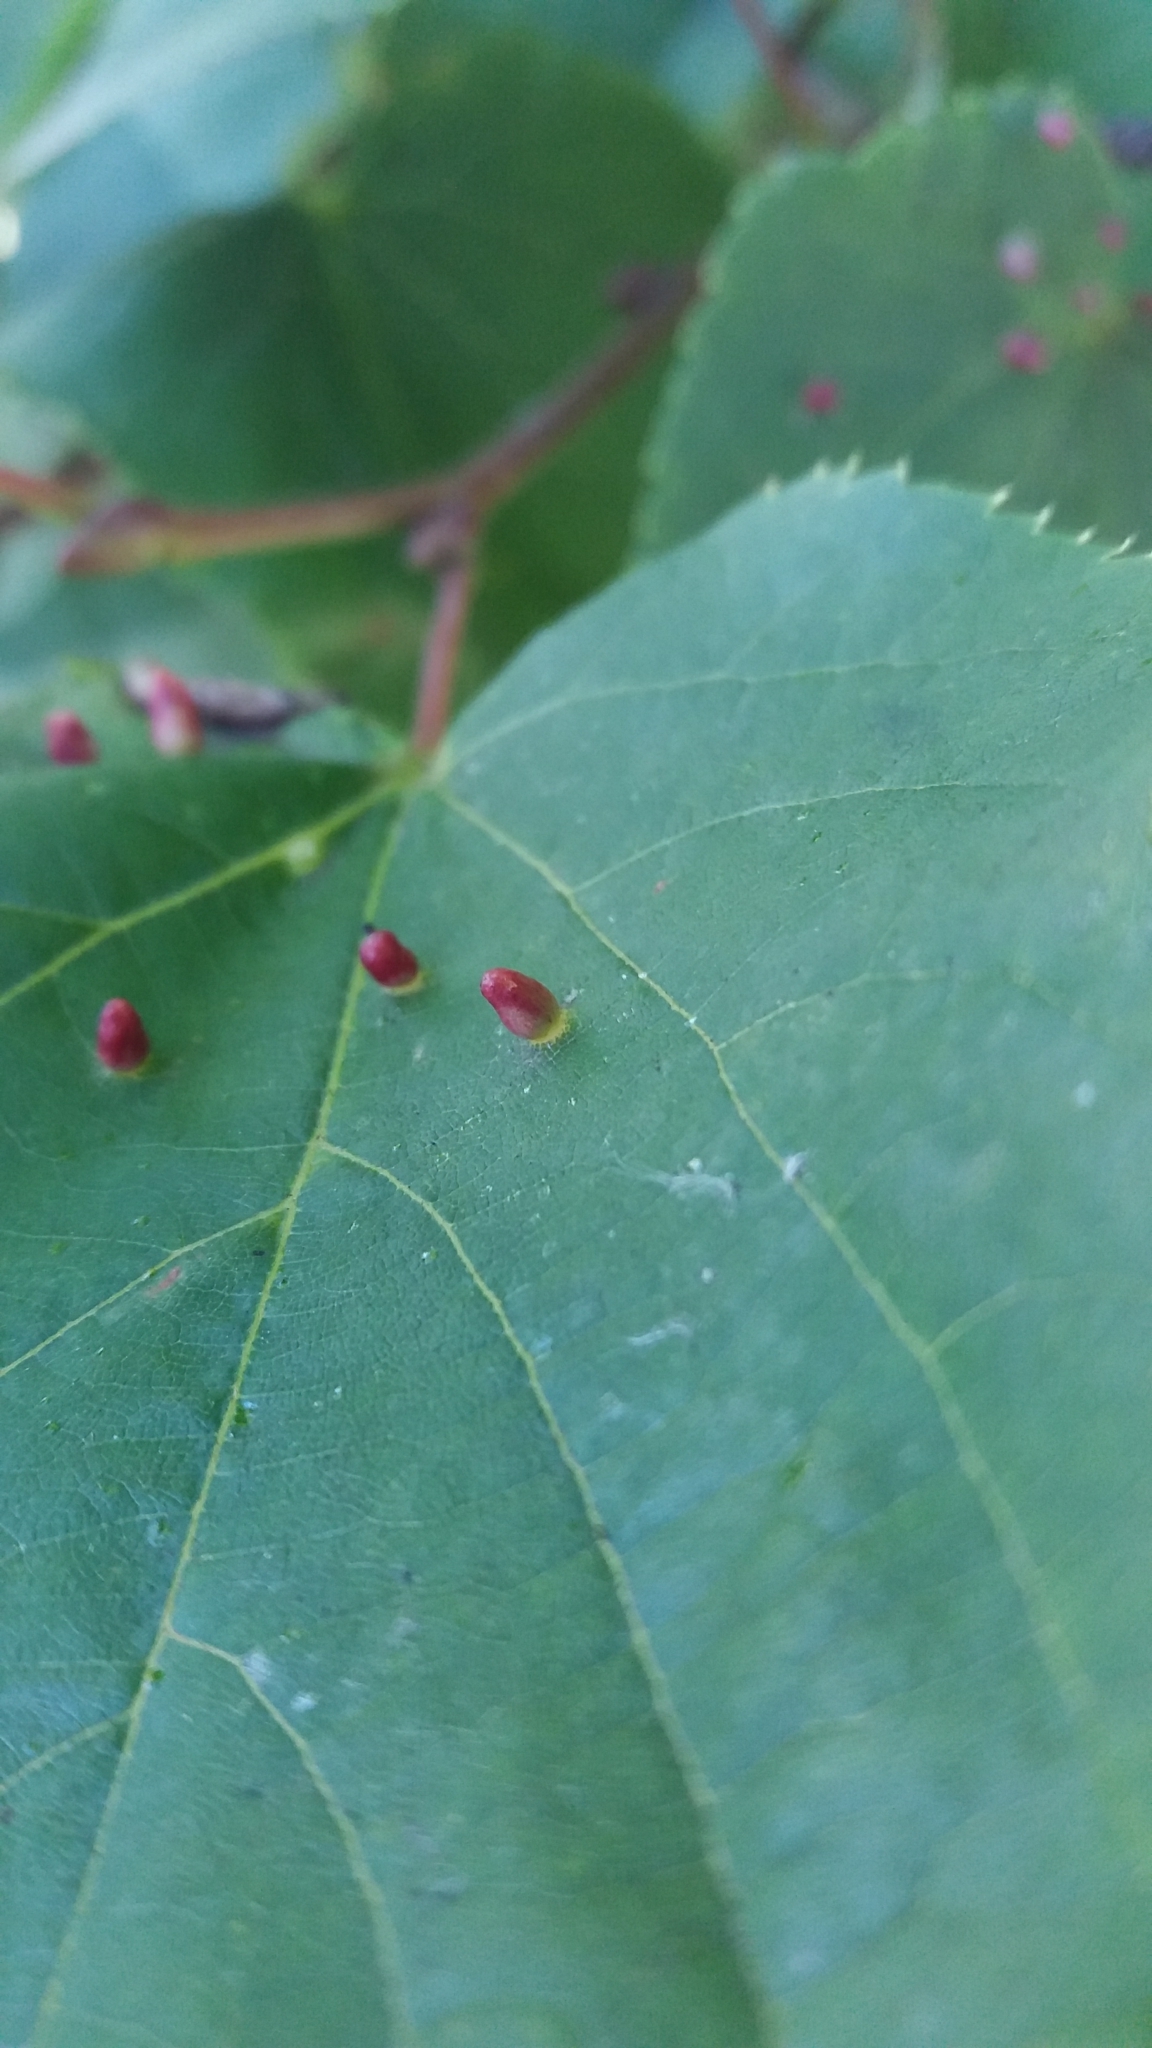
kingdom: Animalia
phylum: Arthropoda
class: Arachnida
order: Trombidiformes
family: Eriophyidae
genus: Eriophyes
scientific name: Eriophyes tiliae
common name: Red nail gall mite
